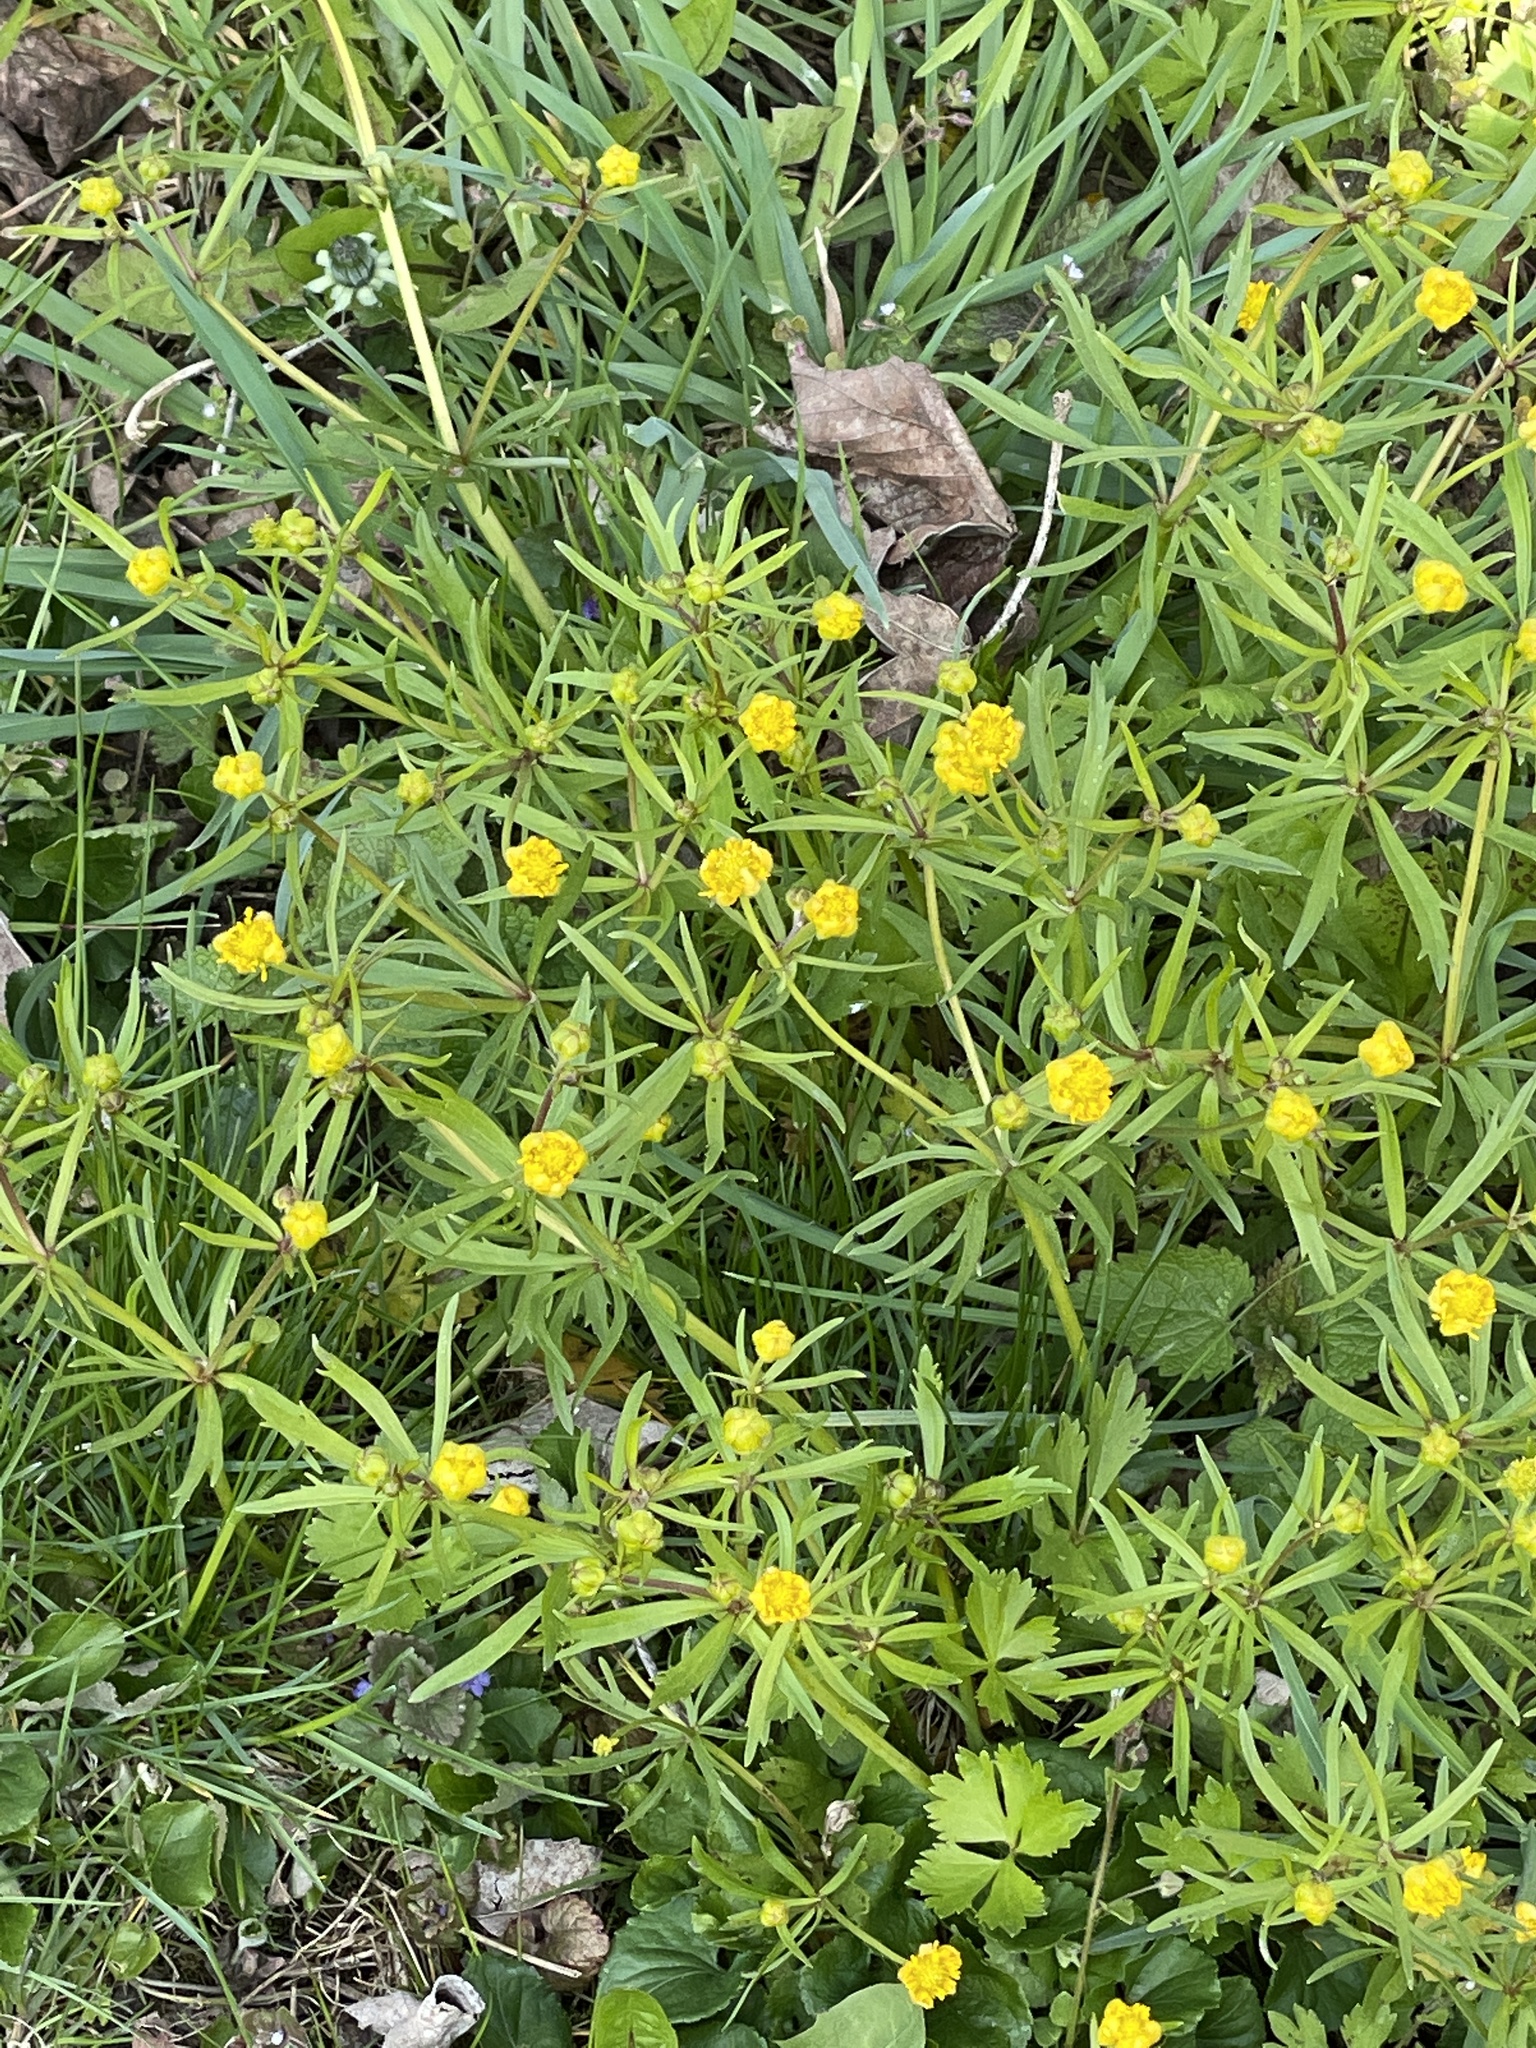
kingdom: Plantae
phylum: Tracheophyta
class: Magnoliopsida
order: Ranunculales
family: Ranunculaceae
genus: Ranunculus
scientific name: Ranunculus auricomus
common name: Goldilocks buttercup
